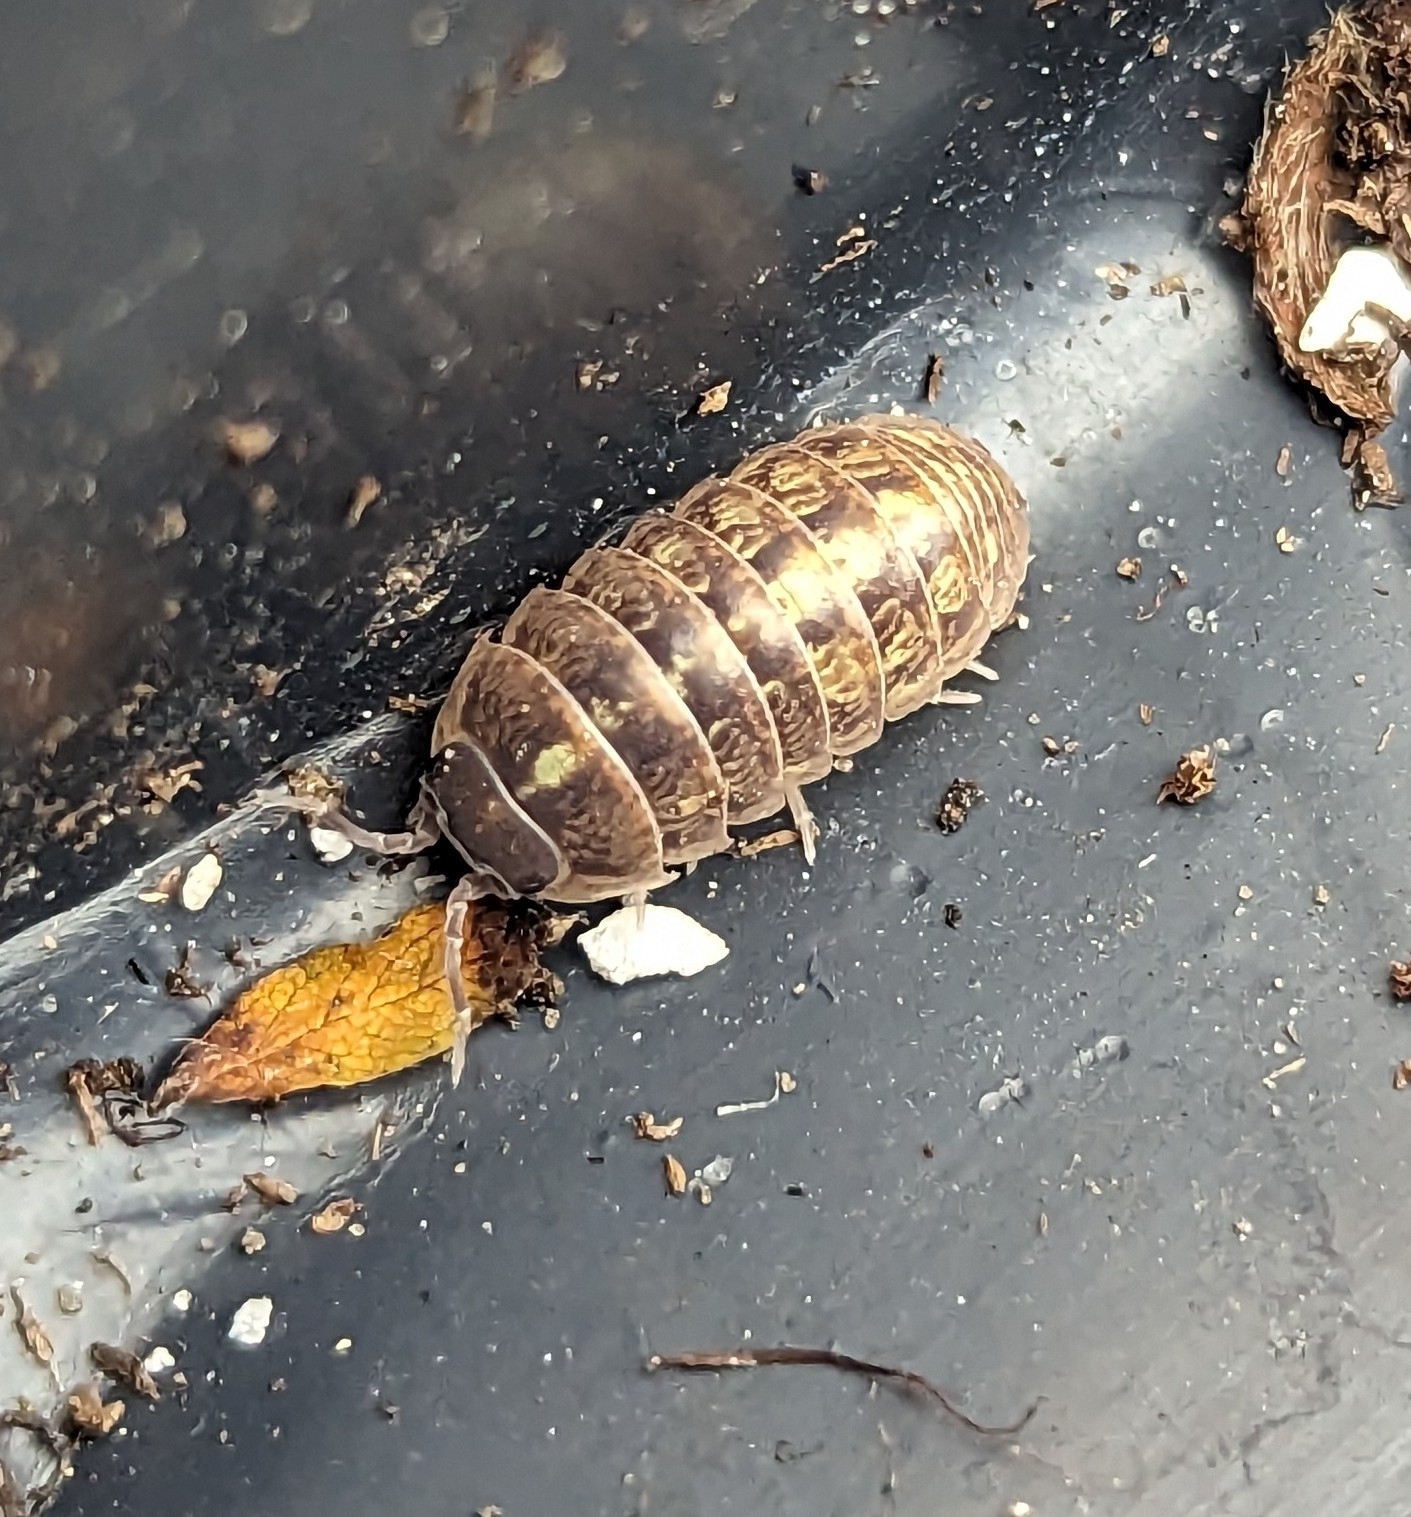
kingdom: Animalia
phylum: Arthropoda
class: Malacostraca
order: Isopoda
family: Armadillidiidae
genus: Armadillidium
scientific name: Armadillidium vulgare
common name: Common pill woodlouse
